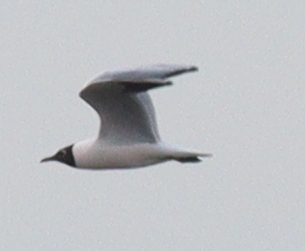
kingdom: Animalia
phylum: Chordata
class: Aves
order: Charadriiformes
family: Laridae
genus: Chroicocephalus
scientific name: Chroicocephalus ridibundus
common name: Black-headed gull
